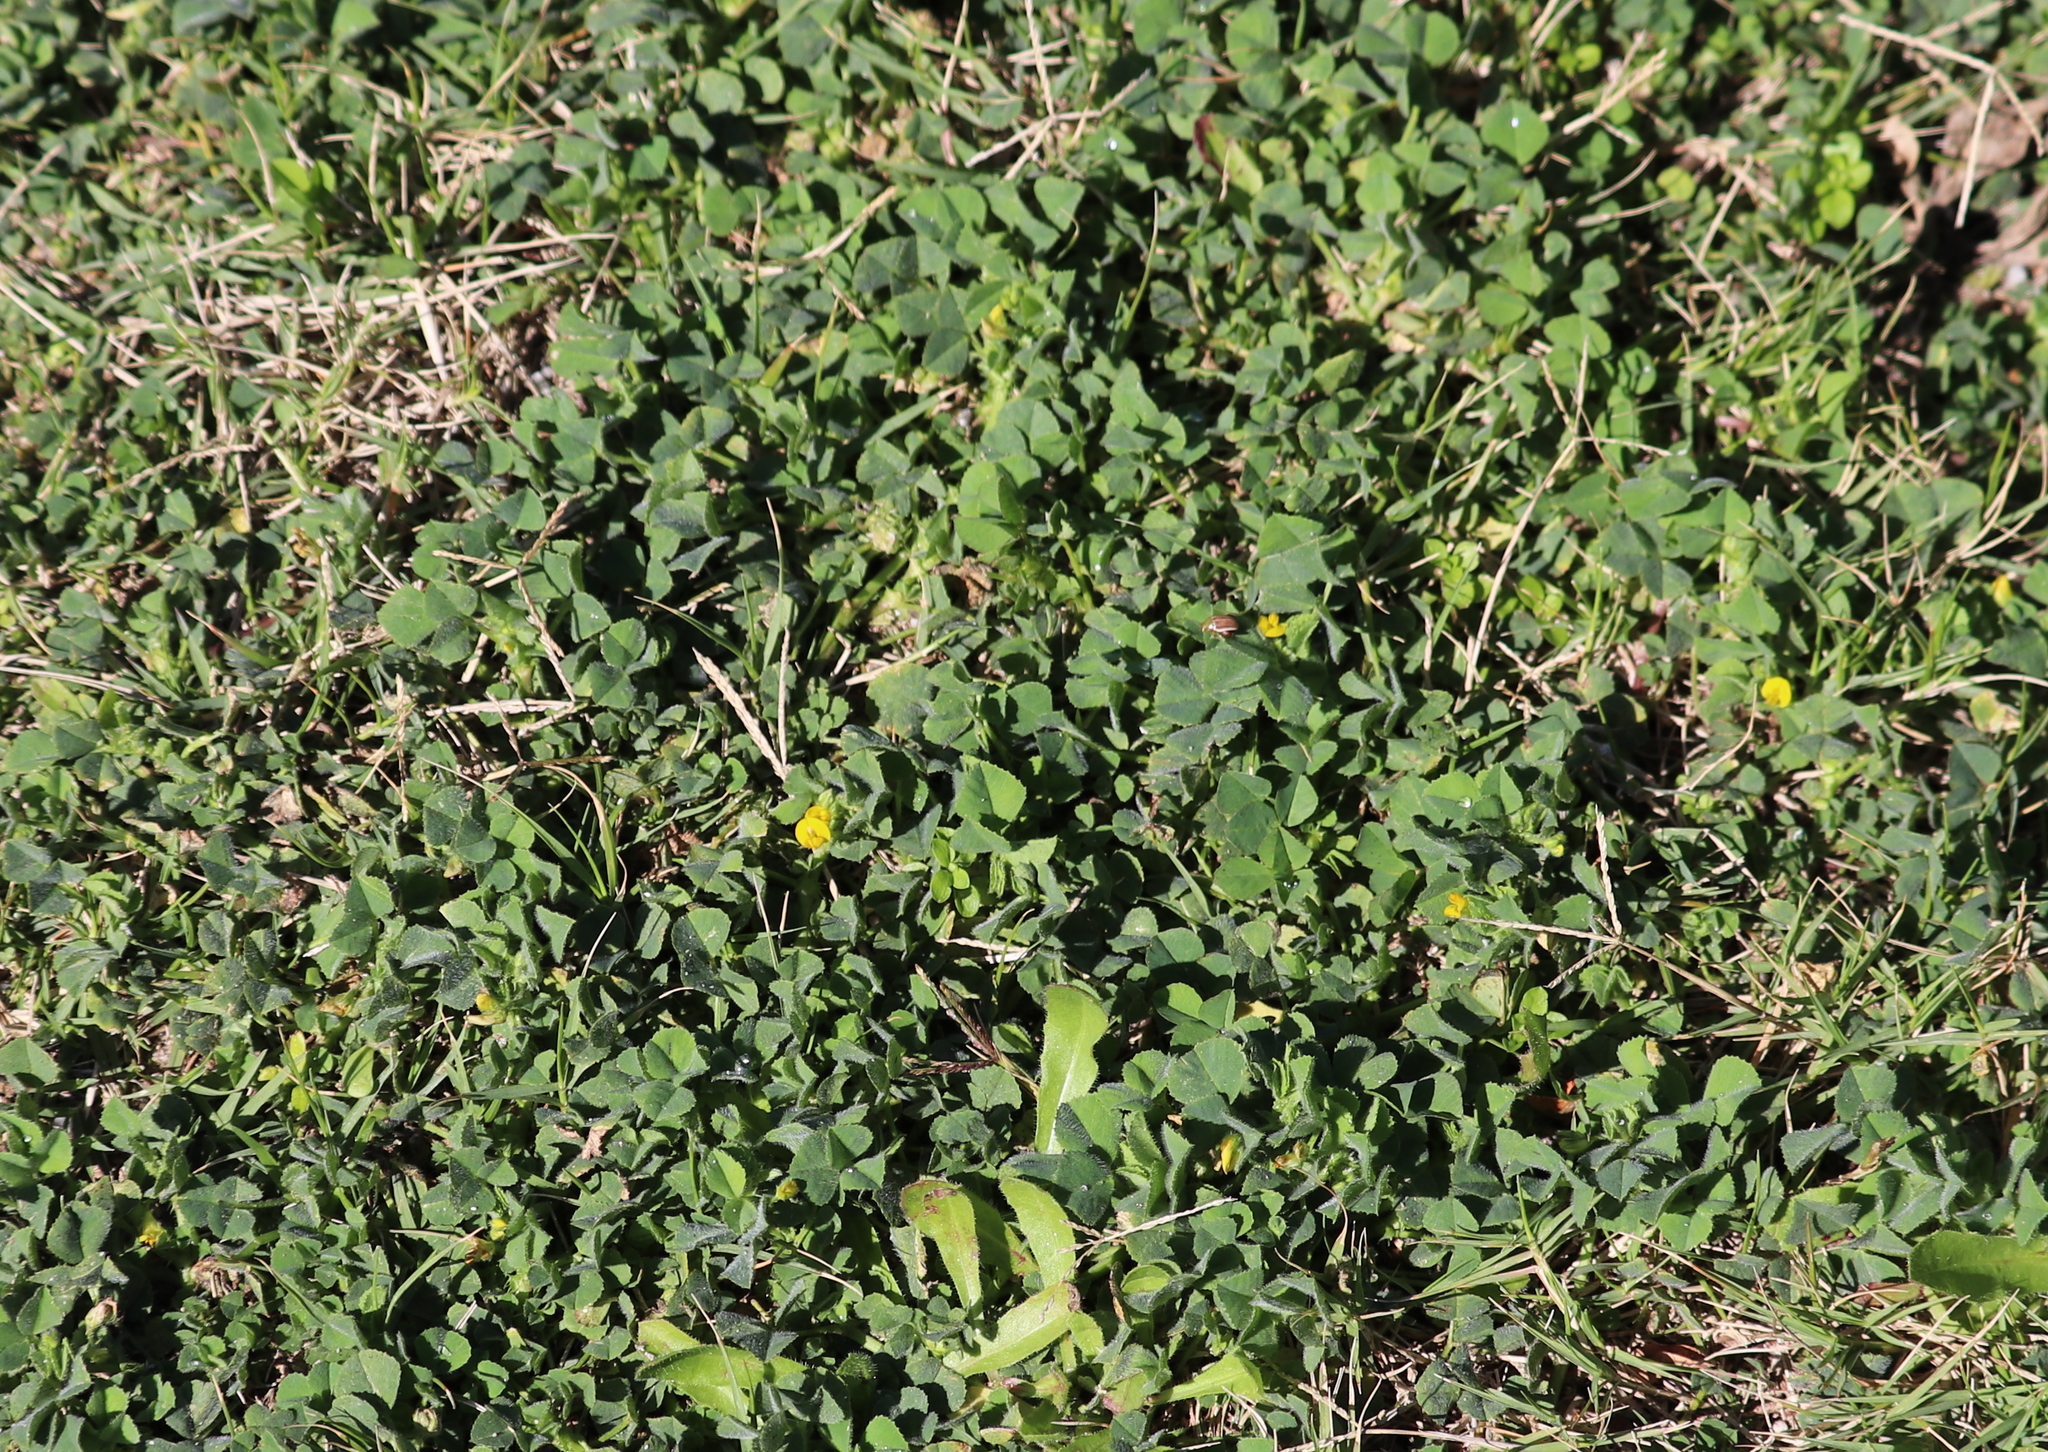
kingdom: Plantae
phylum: Tracheophyta
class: Magnoliopsida
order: Fabales
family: Fabaceae
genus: Medicago
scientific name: Medicago polymorpha
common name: Burclover
